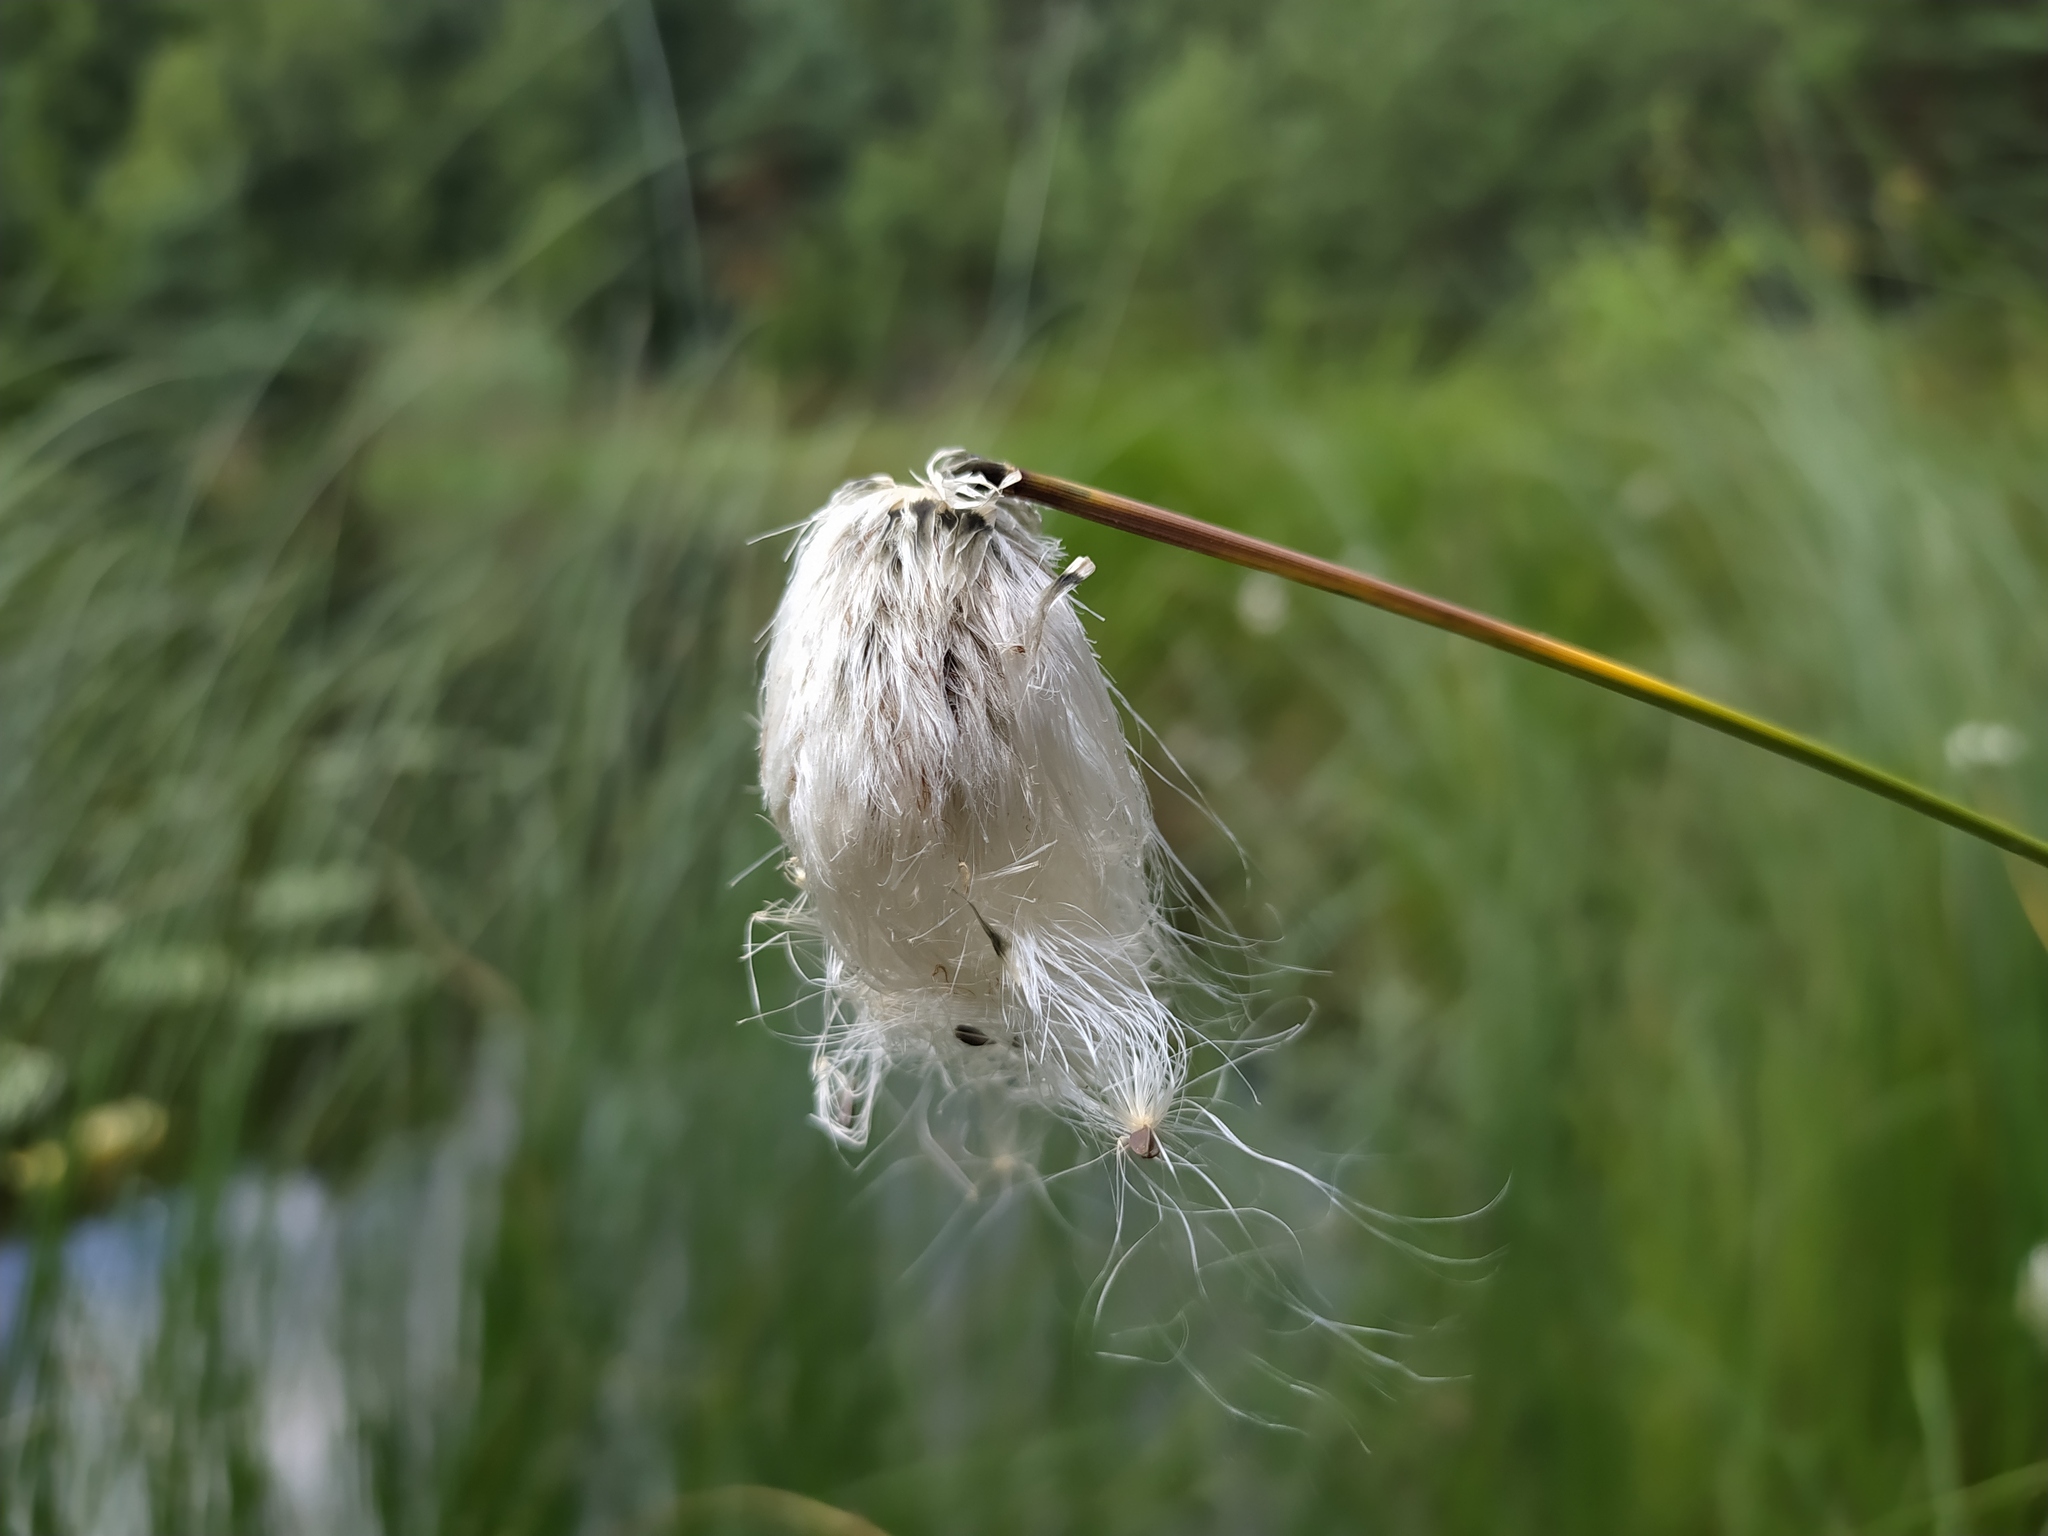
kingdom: Plantae
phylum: Tracheophyta
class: Liliopsida
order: Poales
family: Cyperaceae
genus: Eriophorum
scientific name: Eriophorum vaginatum
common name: Hare's-tail cottongrass
